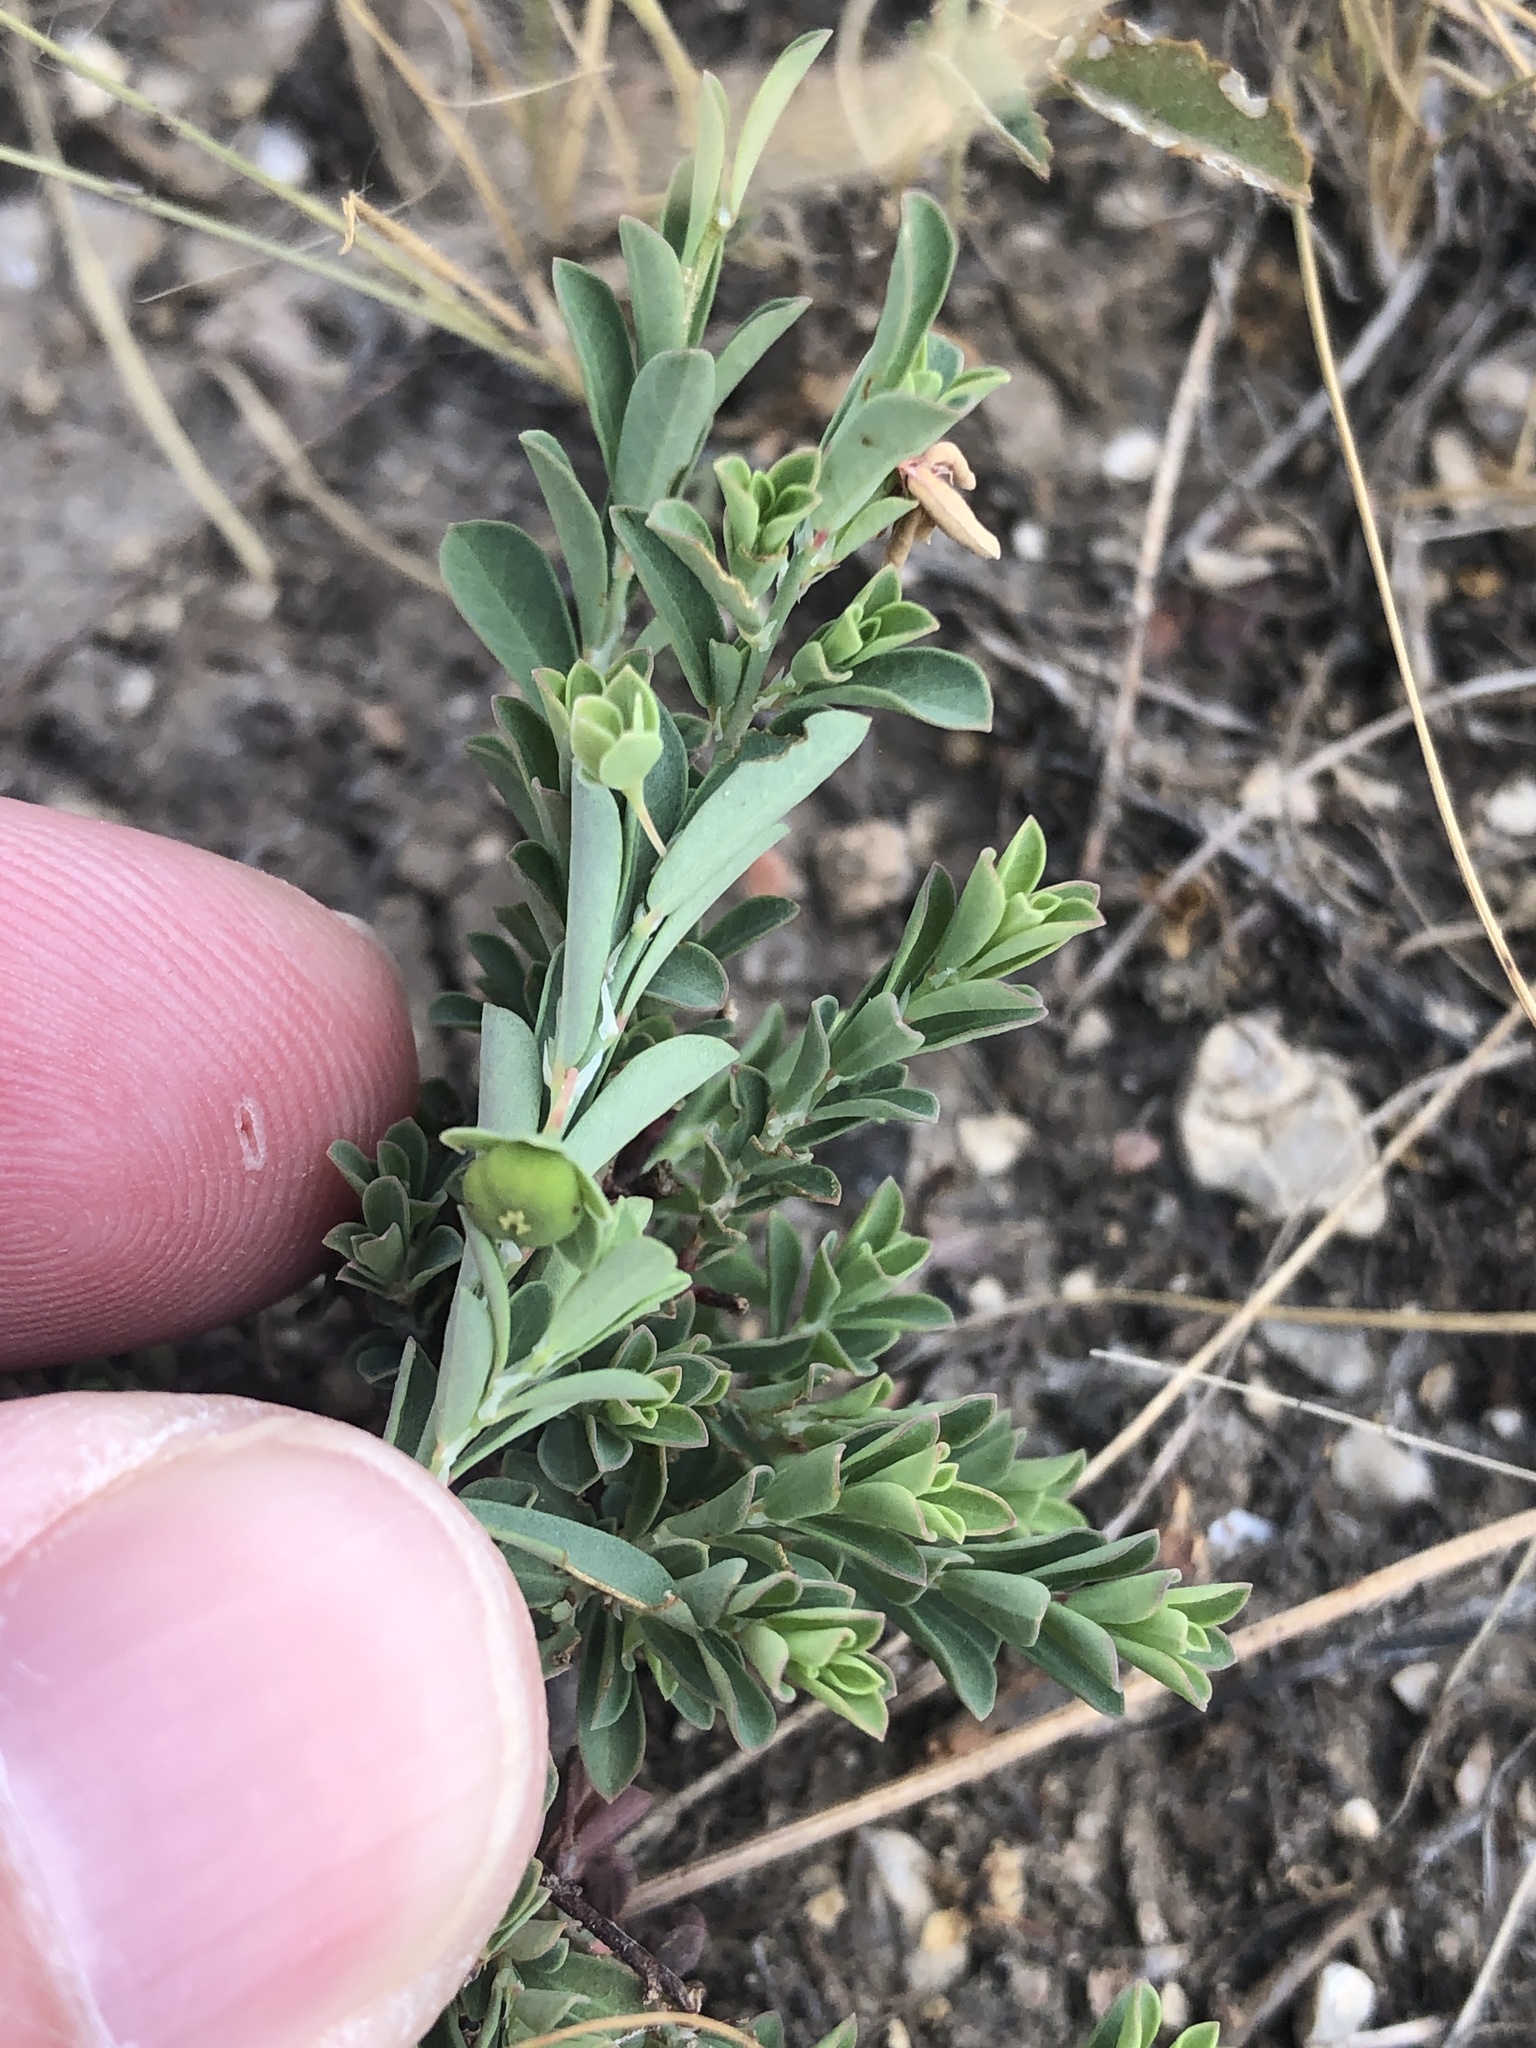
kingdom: Plantae
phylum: Tracheophyta
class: Magnoliopsida
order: Malpighiales
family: Phyllanthaceae
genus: Phyllanthus
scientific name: Phyllanthus polygonoides
